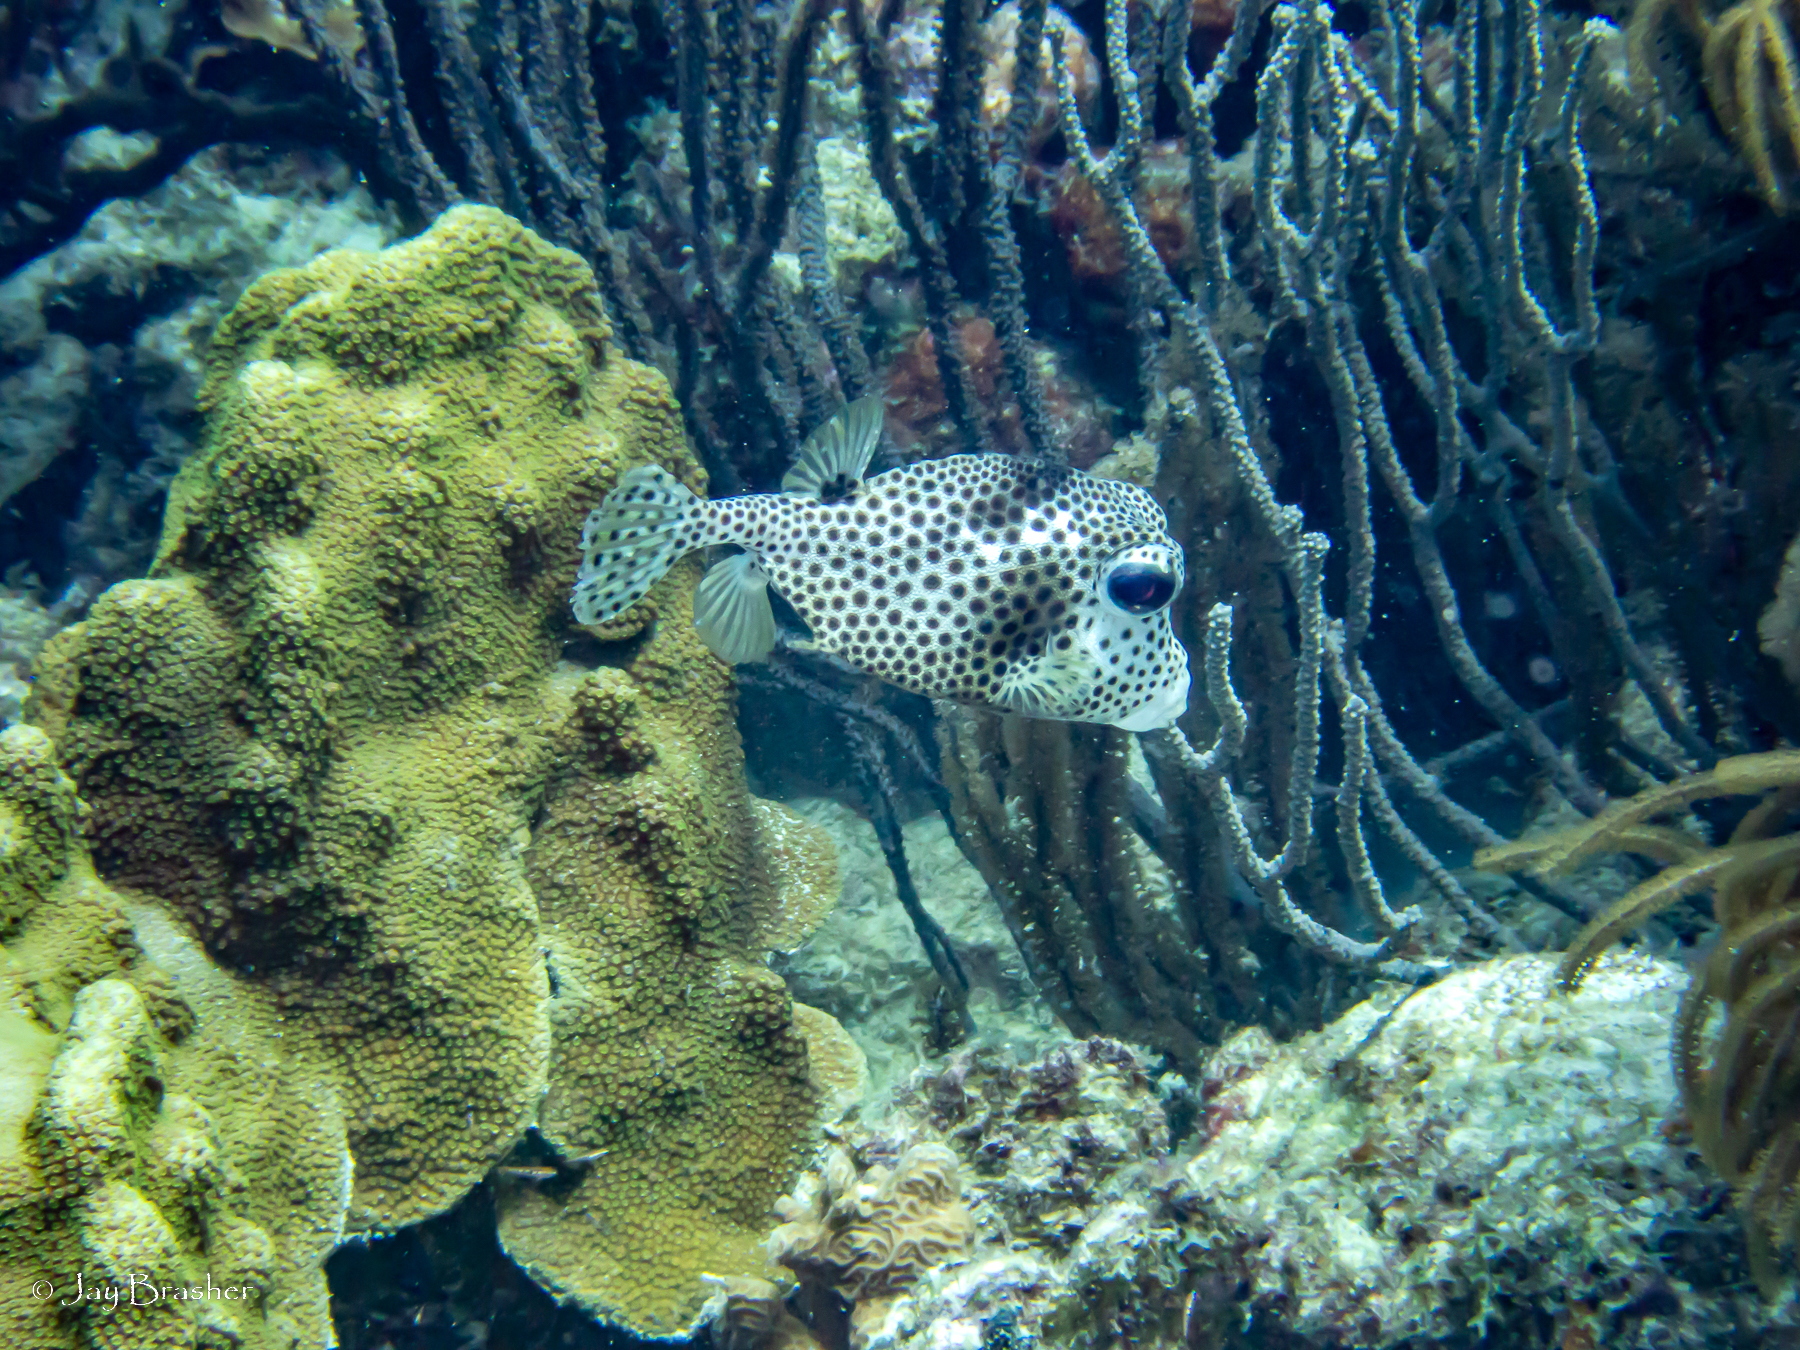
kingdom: Animalia
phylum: Chordata
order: Tetraodontiformes
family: Ostraciidae
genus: Lactophrys
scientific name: Lactophrys bicaudalis
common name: Spotted trunkfish
